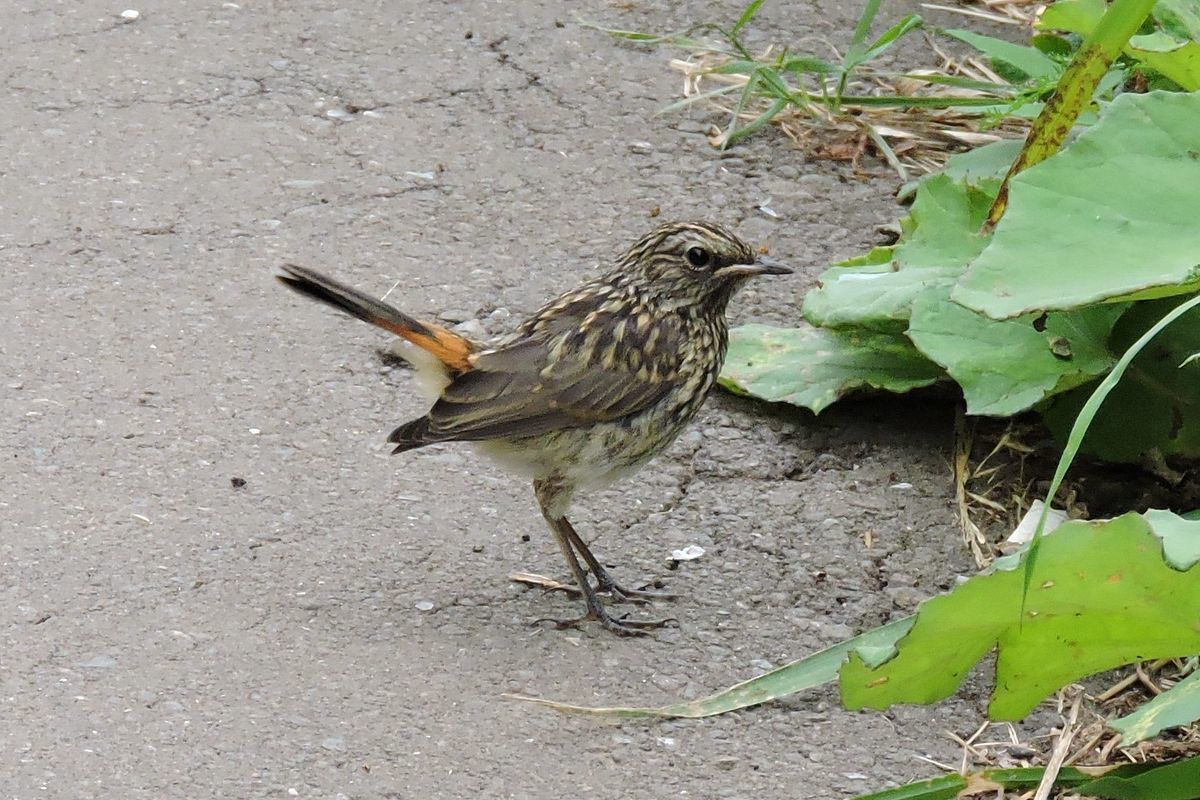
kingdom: Animalia
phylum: Chordata
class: Aves
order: Passeriformes
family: Muscicapidae
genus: Luscinia
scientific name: Luscinia svecica
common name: Bluethroat
